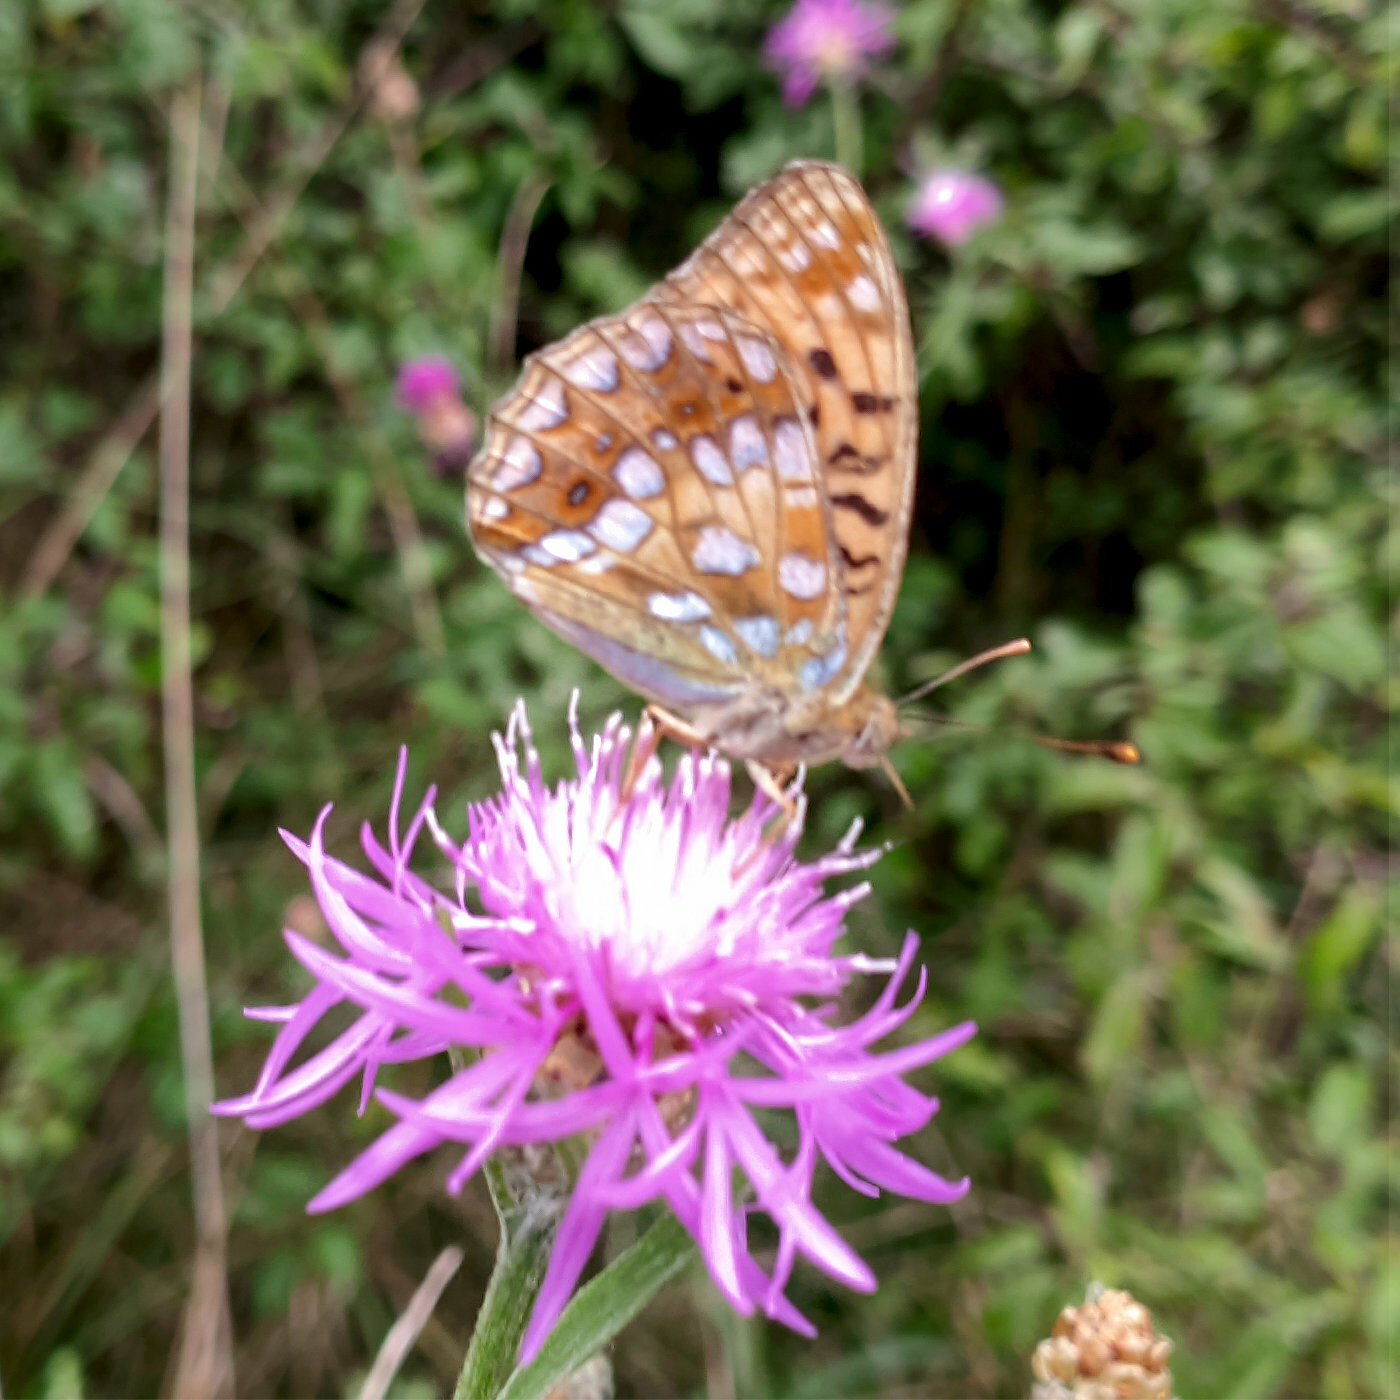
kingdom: Animalia
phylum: Arthropoda
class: Insecta
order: Lepidoptera
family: Nymphalidae
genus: Fabriciana
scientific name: Fabriciana adippe
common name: High brown fritillary
